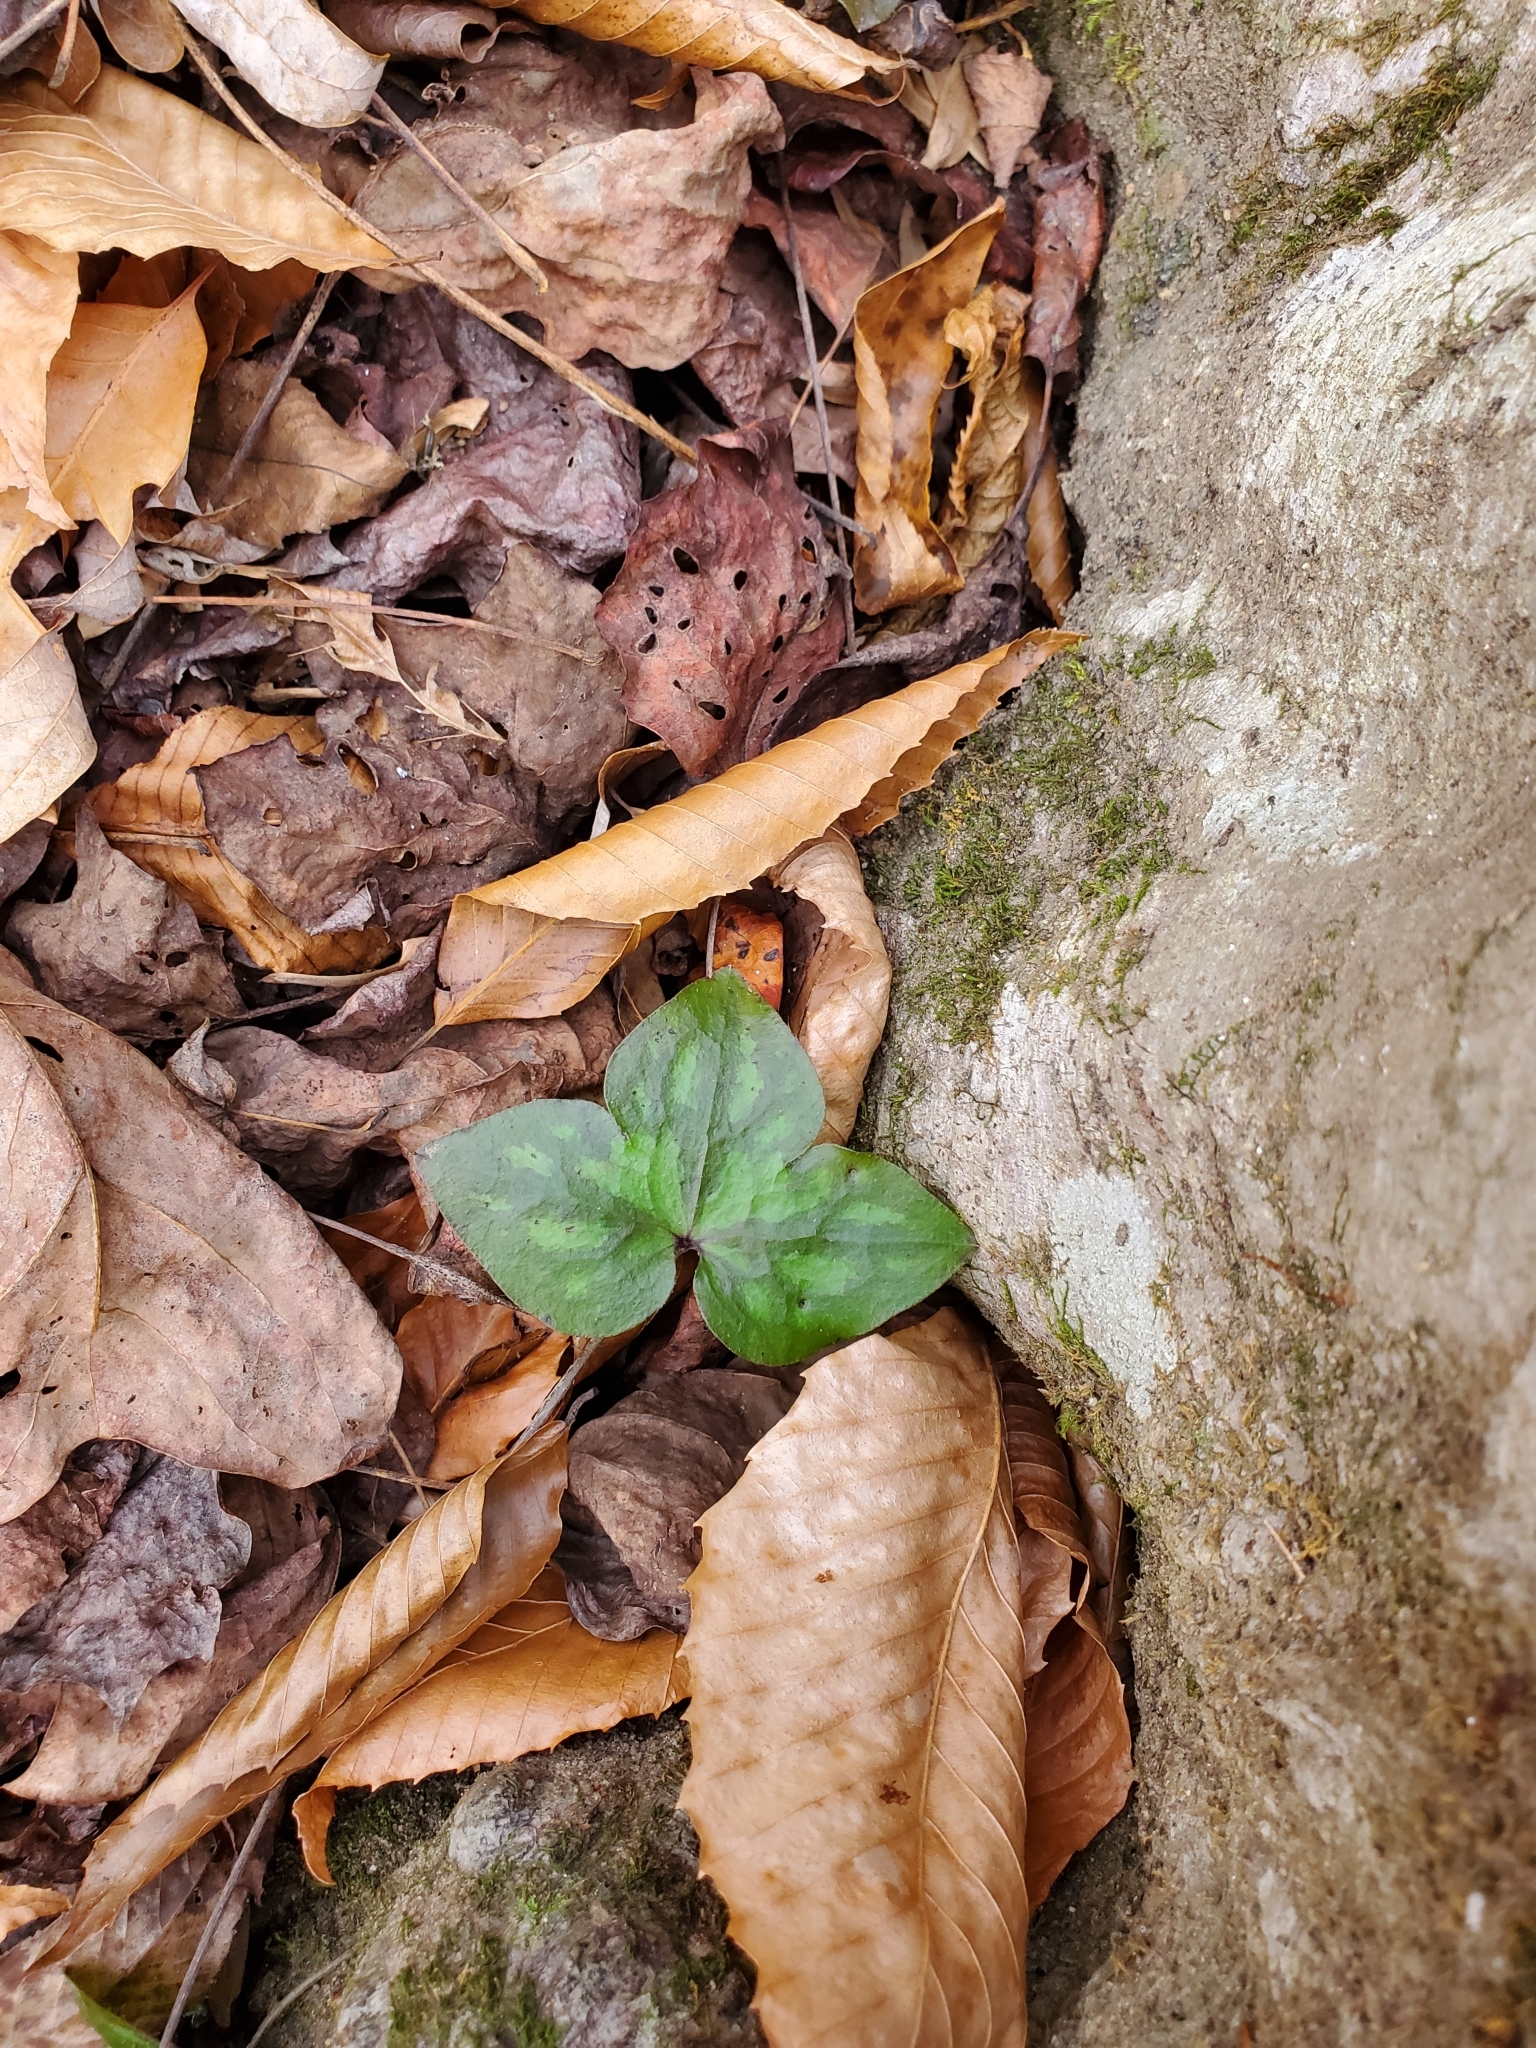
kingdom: Plantae
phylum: Tracheophyta
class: Magnoliopsida
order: Ranunculales
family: Ranunculaceae
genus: Hepatica
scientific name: Hepatica acutiloba
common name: Sharp-lobed hepatica
